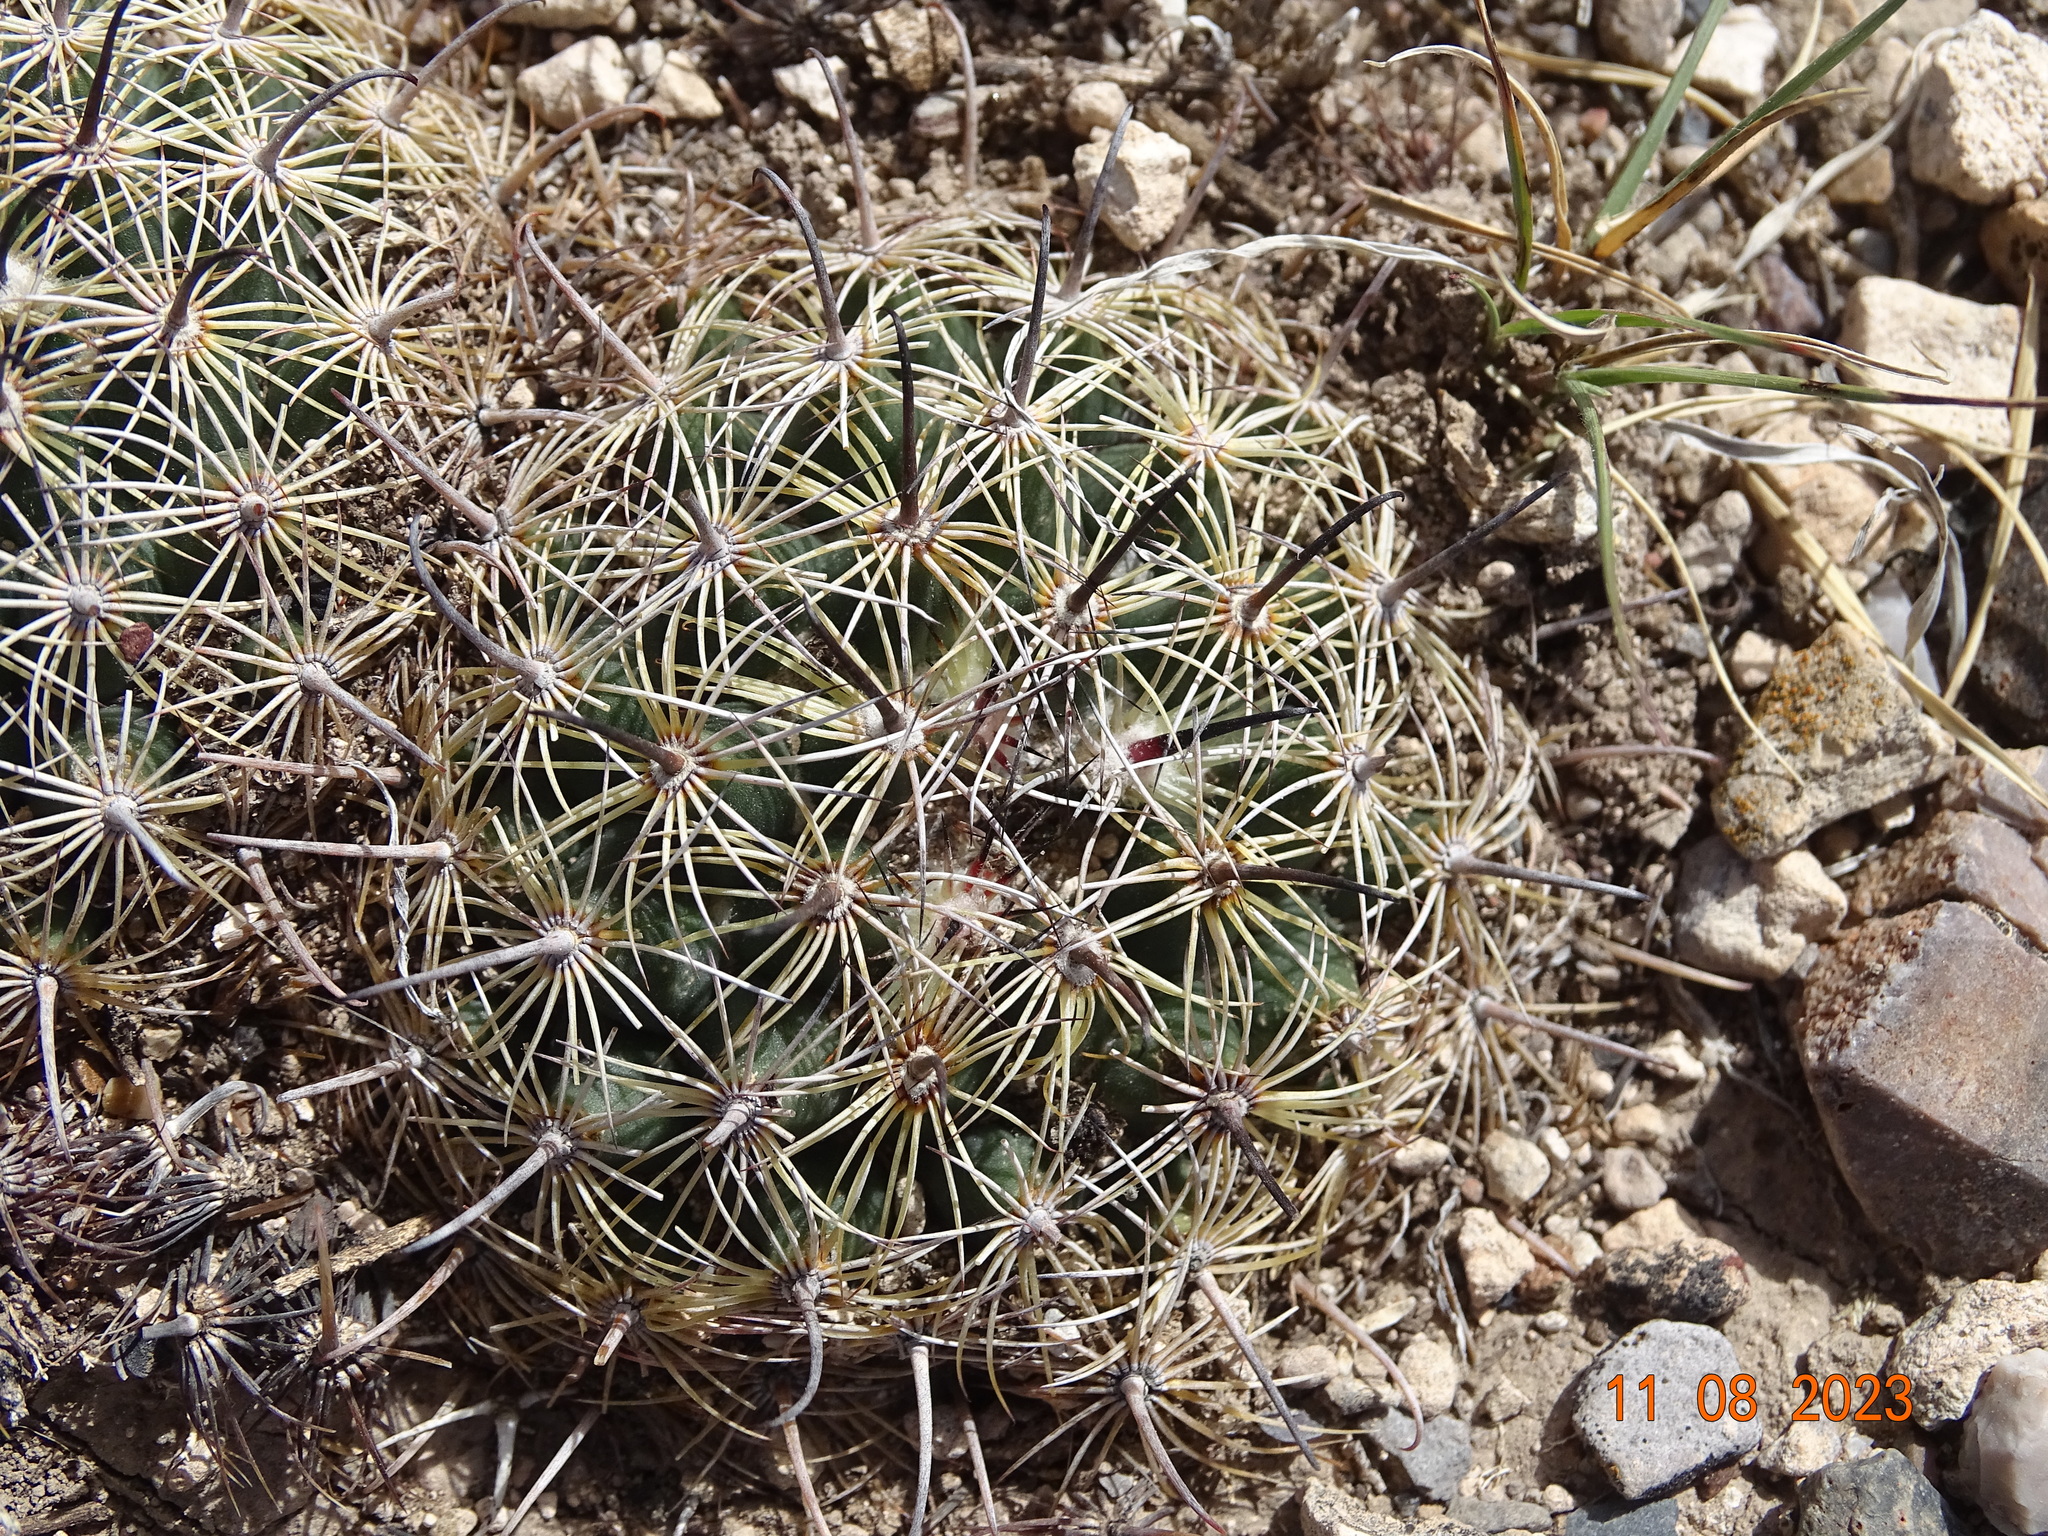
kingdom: Plantae
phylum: Tracheophyta
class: Magnoliopsida
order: Caryophyllales
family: Cactaceae
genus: Coryphantha
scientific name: Coryphantha delicata
